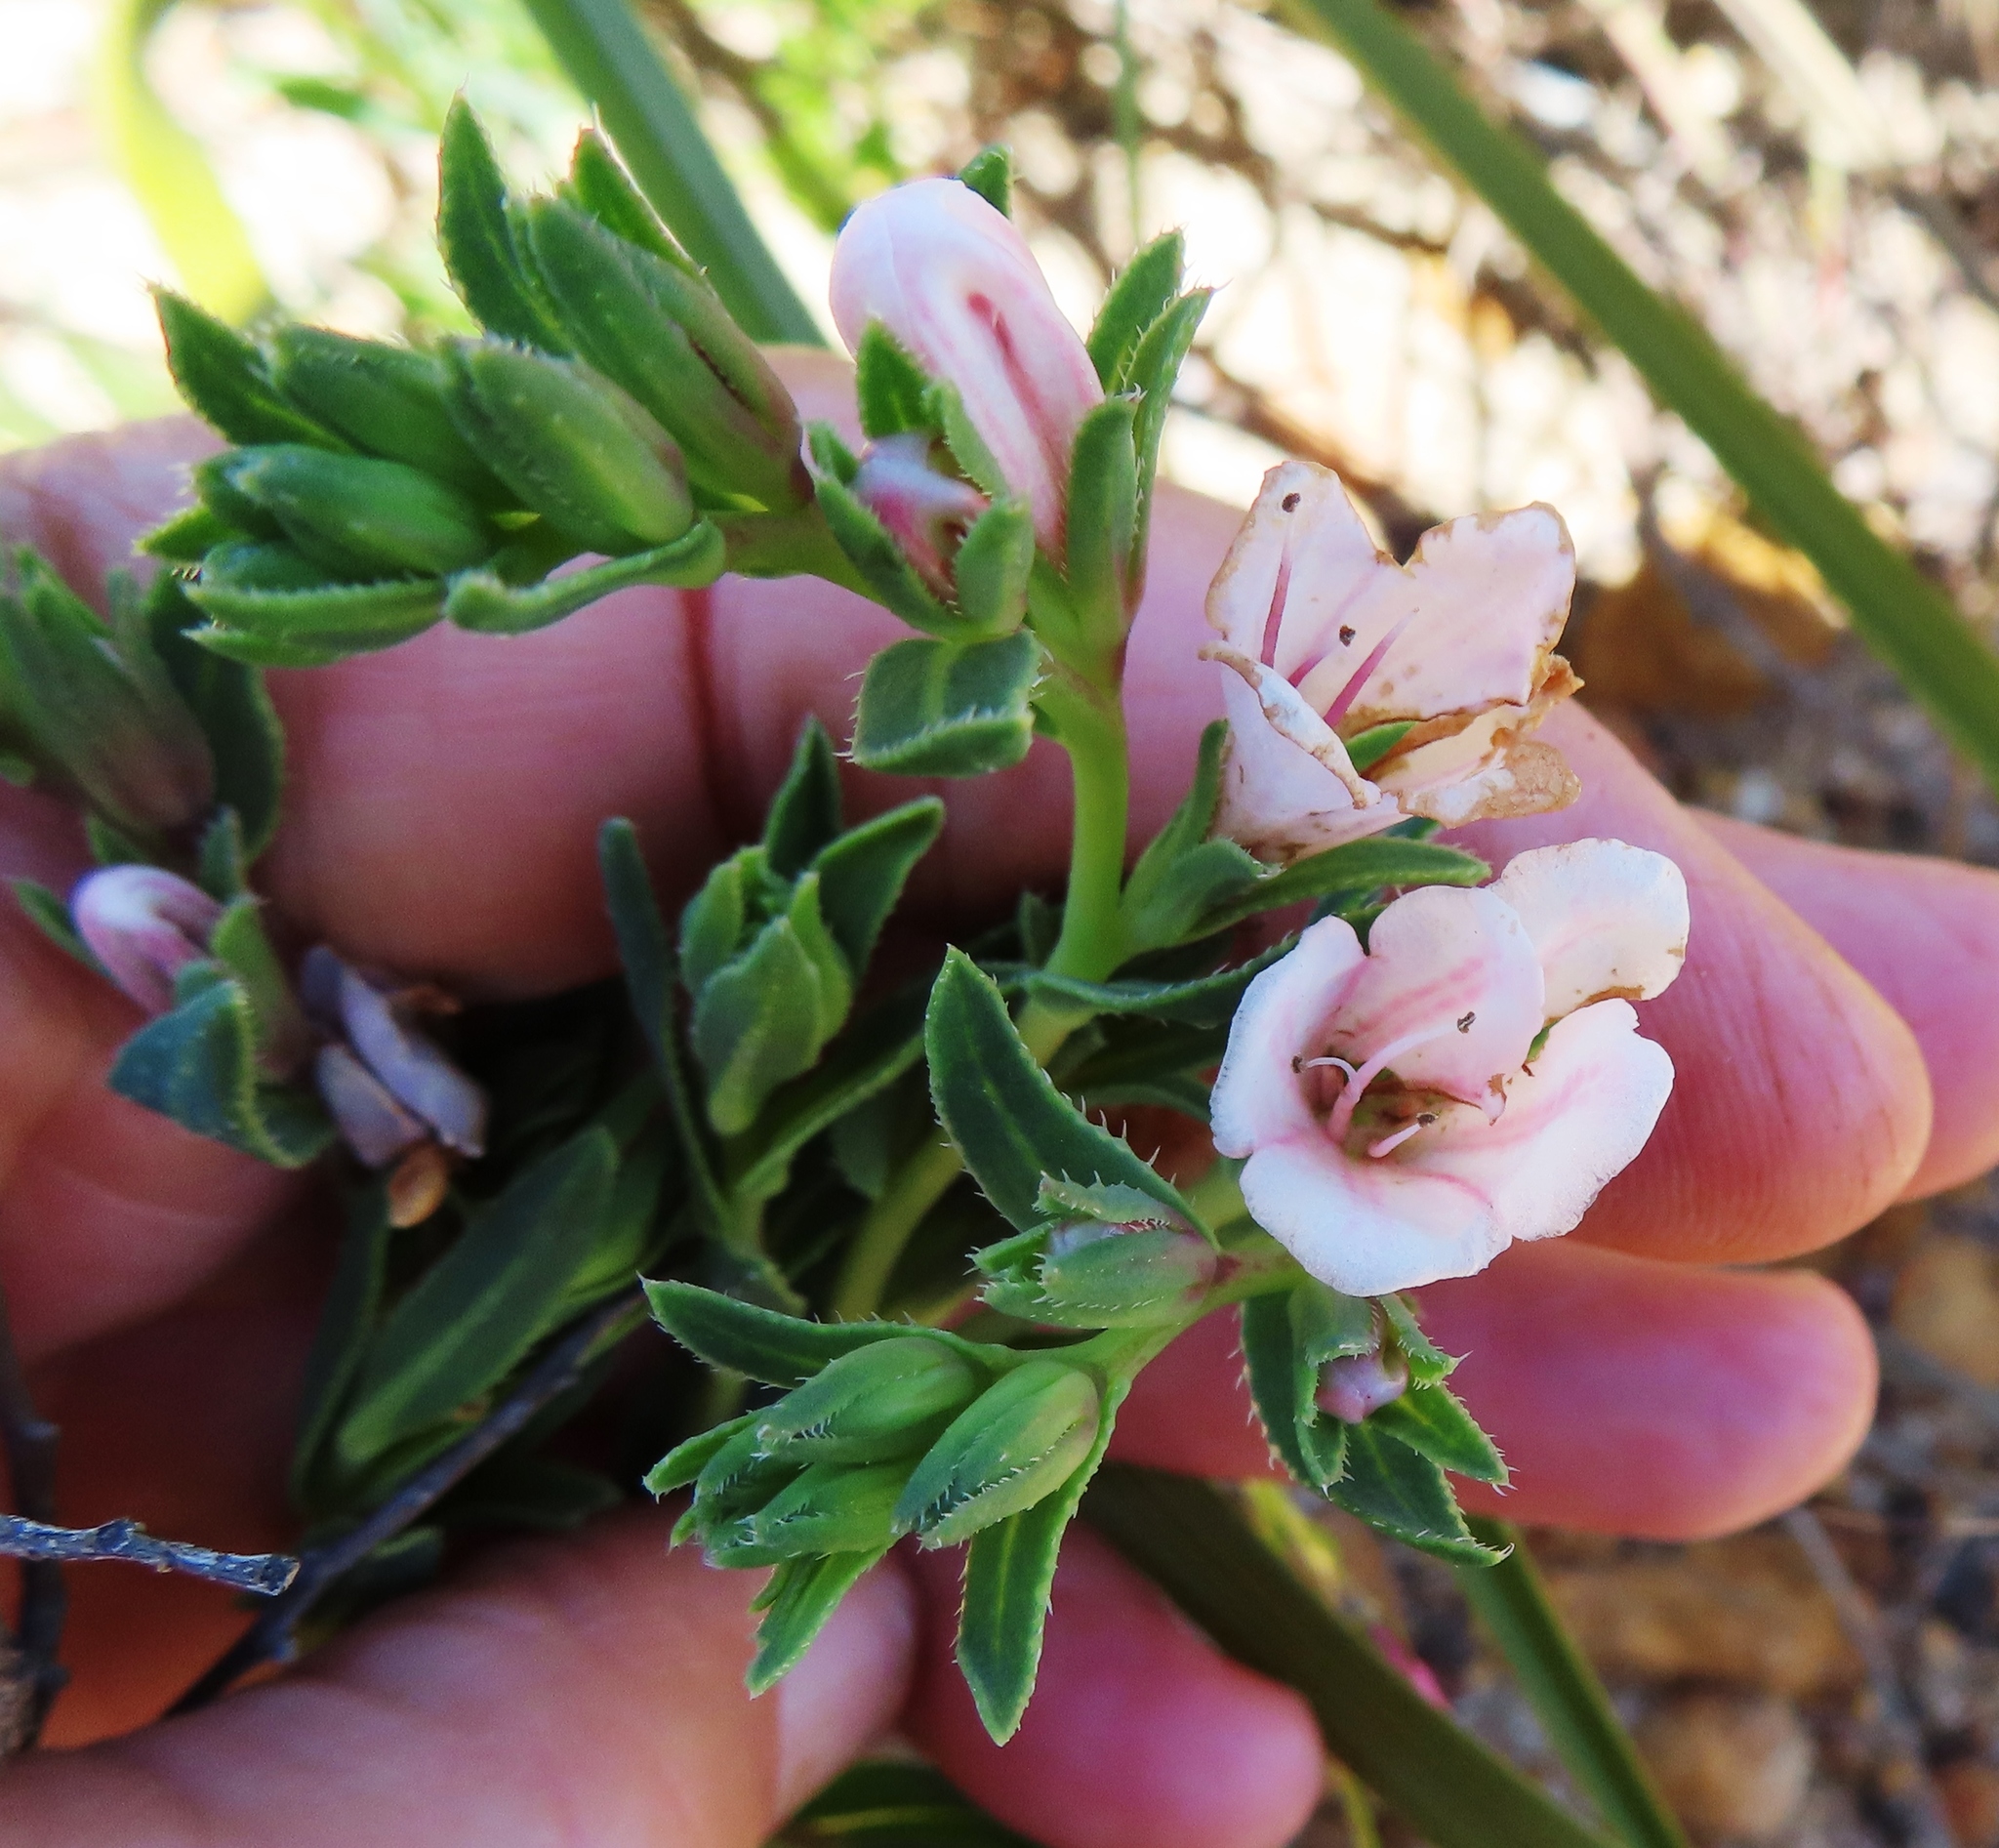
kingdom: Plantae
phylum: Tracheophyta
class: Magnoliopsida
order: Boraginales
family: Boraginaceae
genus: Lobostemon
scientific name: Lobostemon hottentoticus
